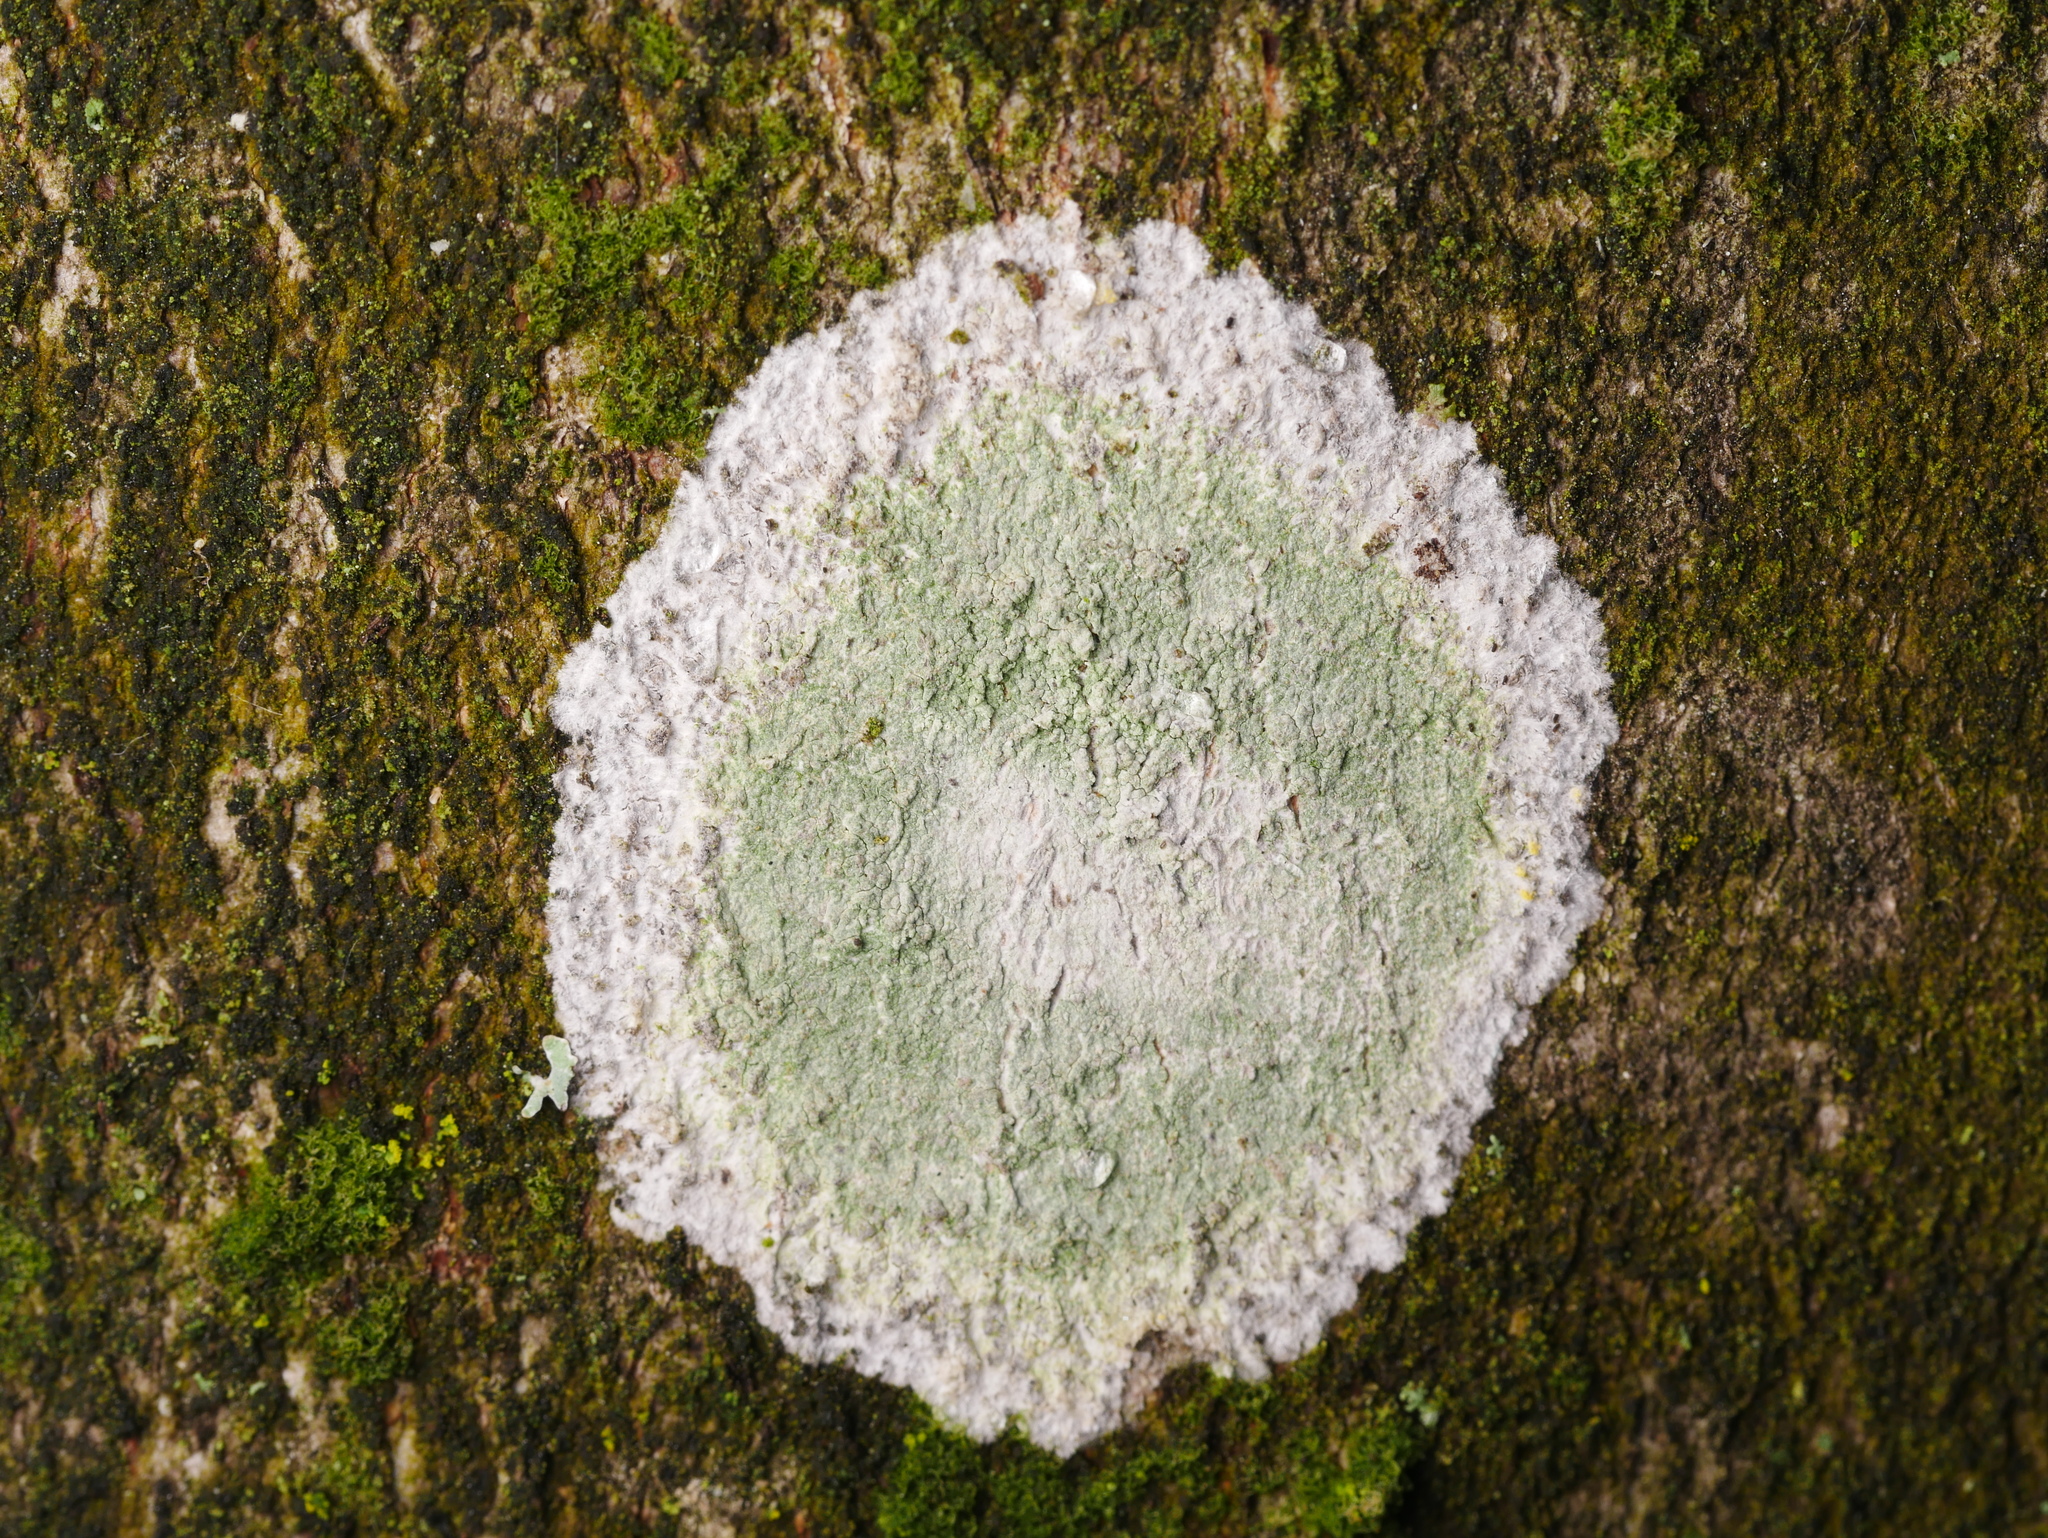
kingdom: Fungi
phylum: Ascomycota
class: Lecanoromycetes
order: Ostropales
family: Phlyctidaceae
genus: Phlyctis
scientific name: Phlyctis argena
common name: Whitewash lichen
